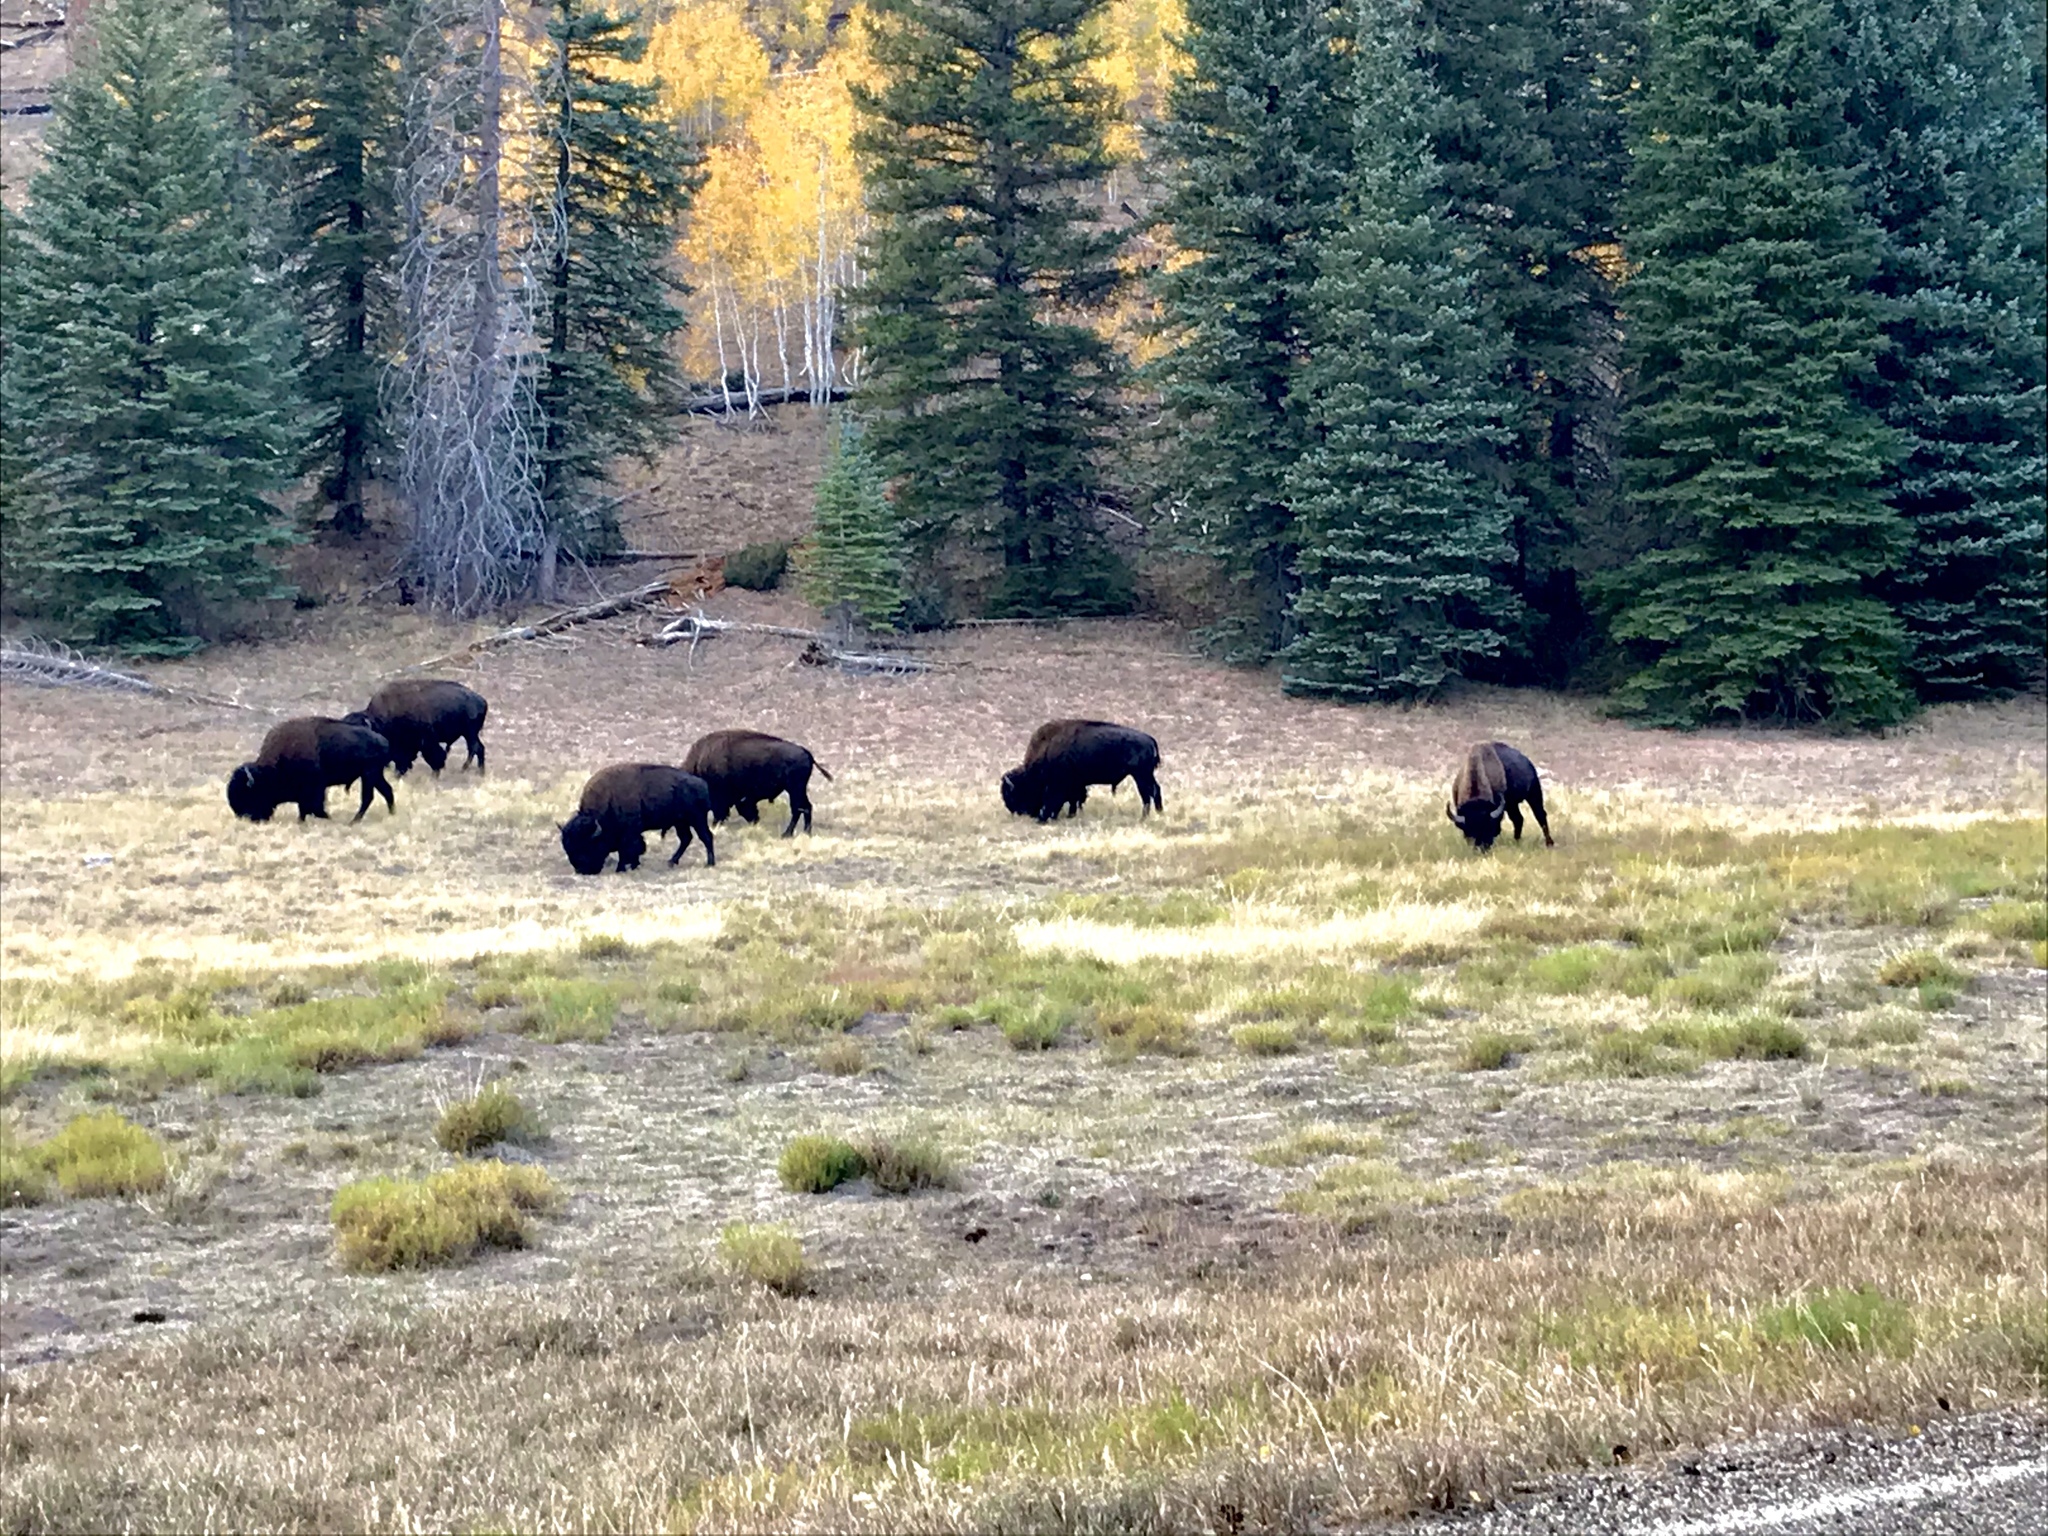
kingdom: Animalia
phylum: Chordata
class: Mammalia
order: Artiodactyla
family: Bovidae
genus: Bison
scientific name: Bison bison
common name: American bison
